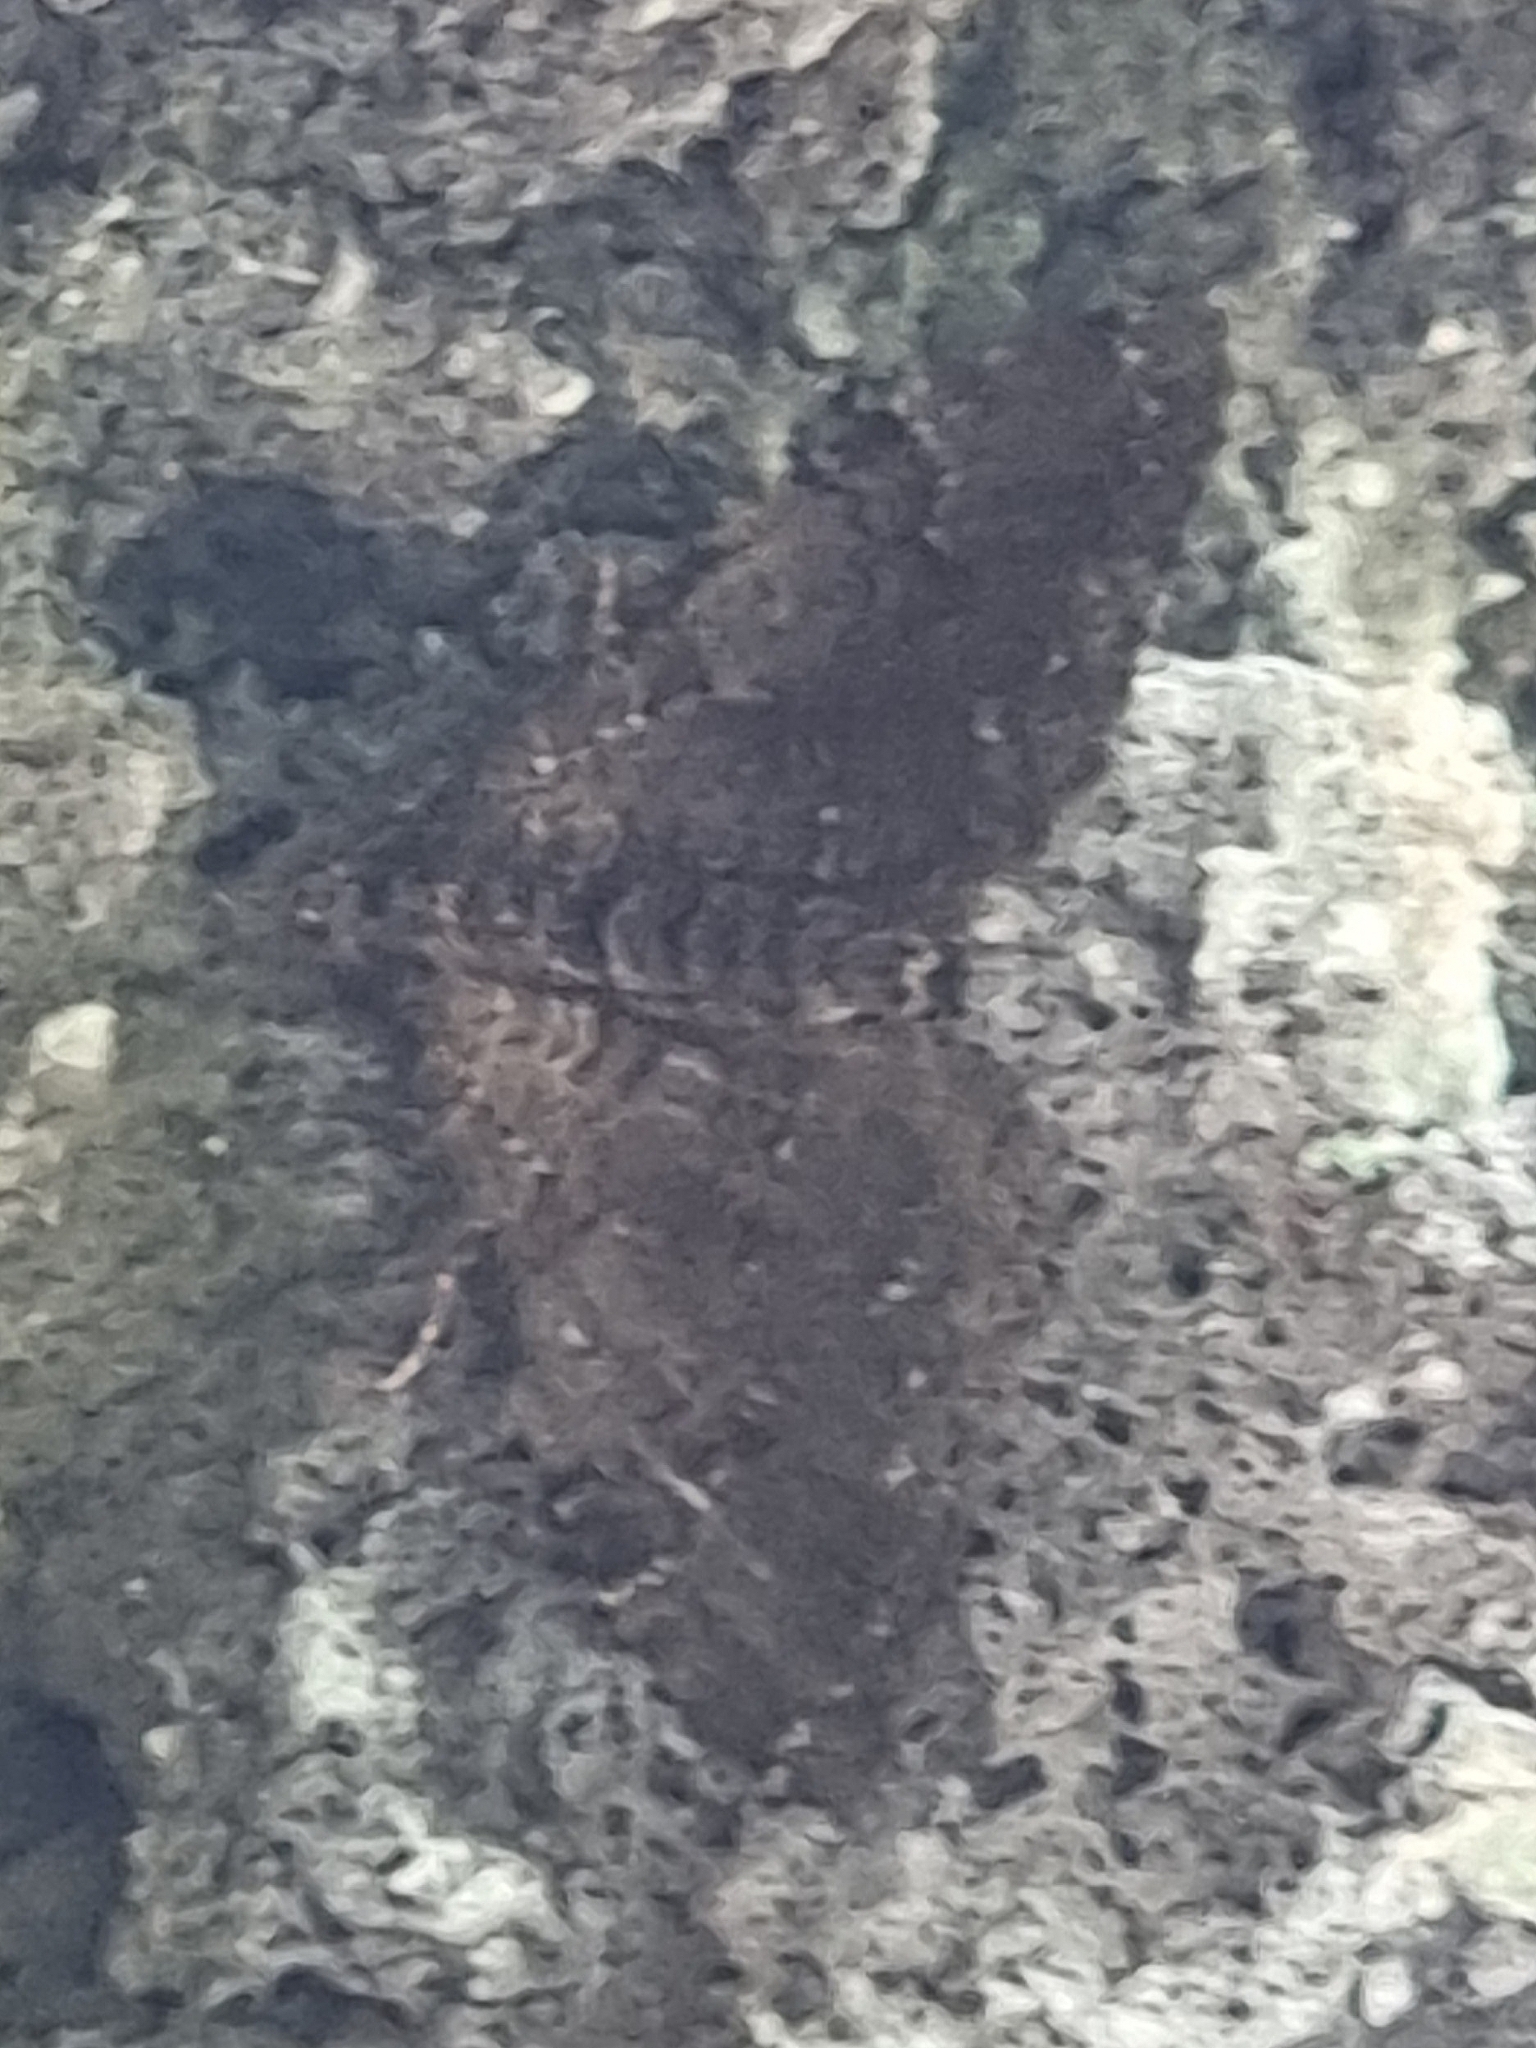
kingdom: Animalia
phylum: Arthropoda
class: Insecta
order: Lepidoptera
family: Geometridae
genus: Xanthorhoe
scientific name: Xanthorhoe rupicola
